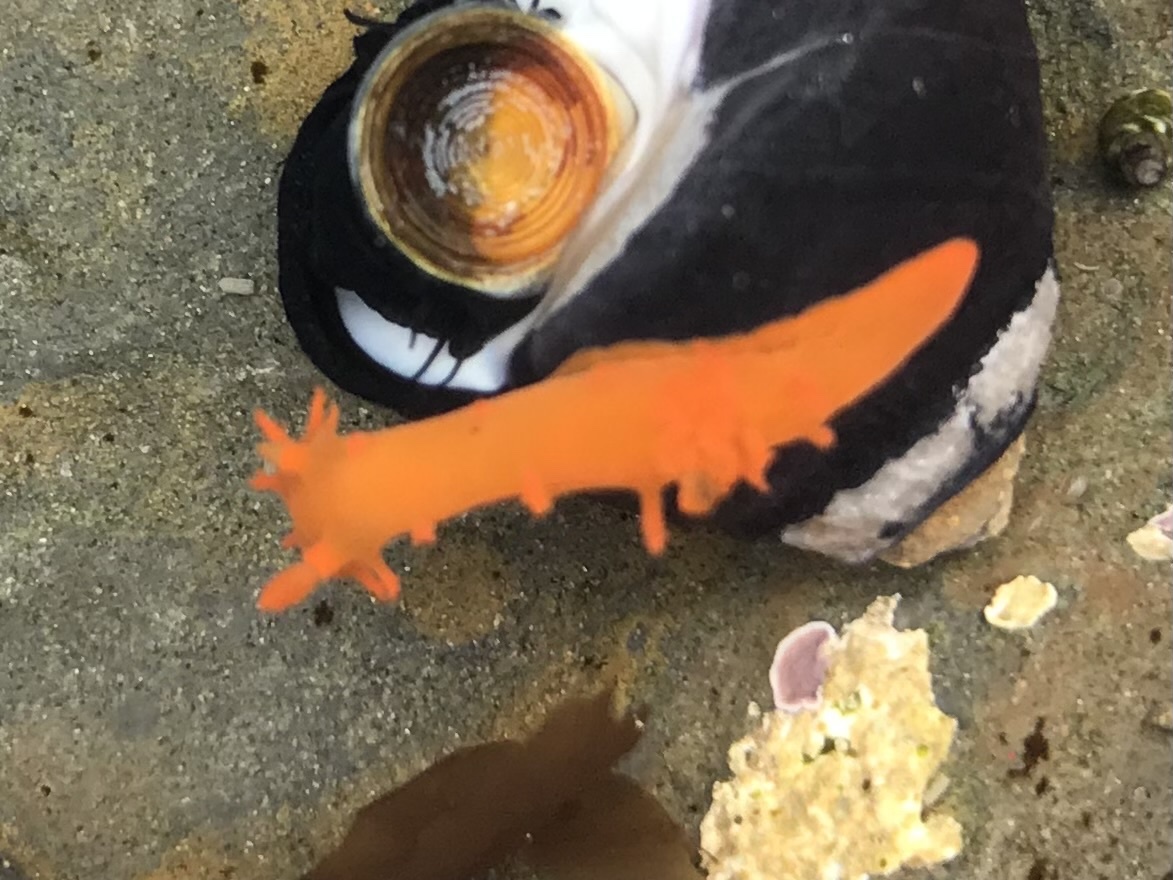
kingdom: Animalia
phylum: Mollusca
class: Gastropoda
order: Nudibranchia
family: Polyceridae
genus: Triopha
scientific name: Triopha maculata
